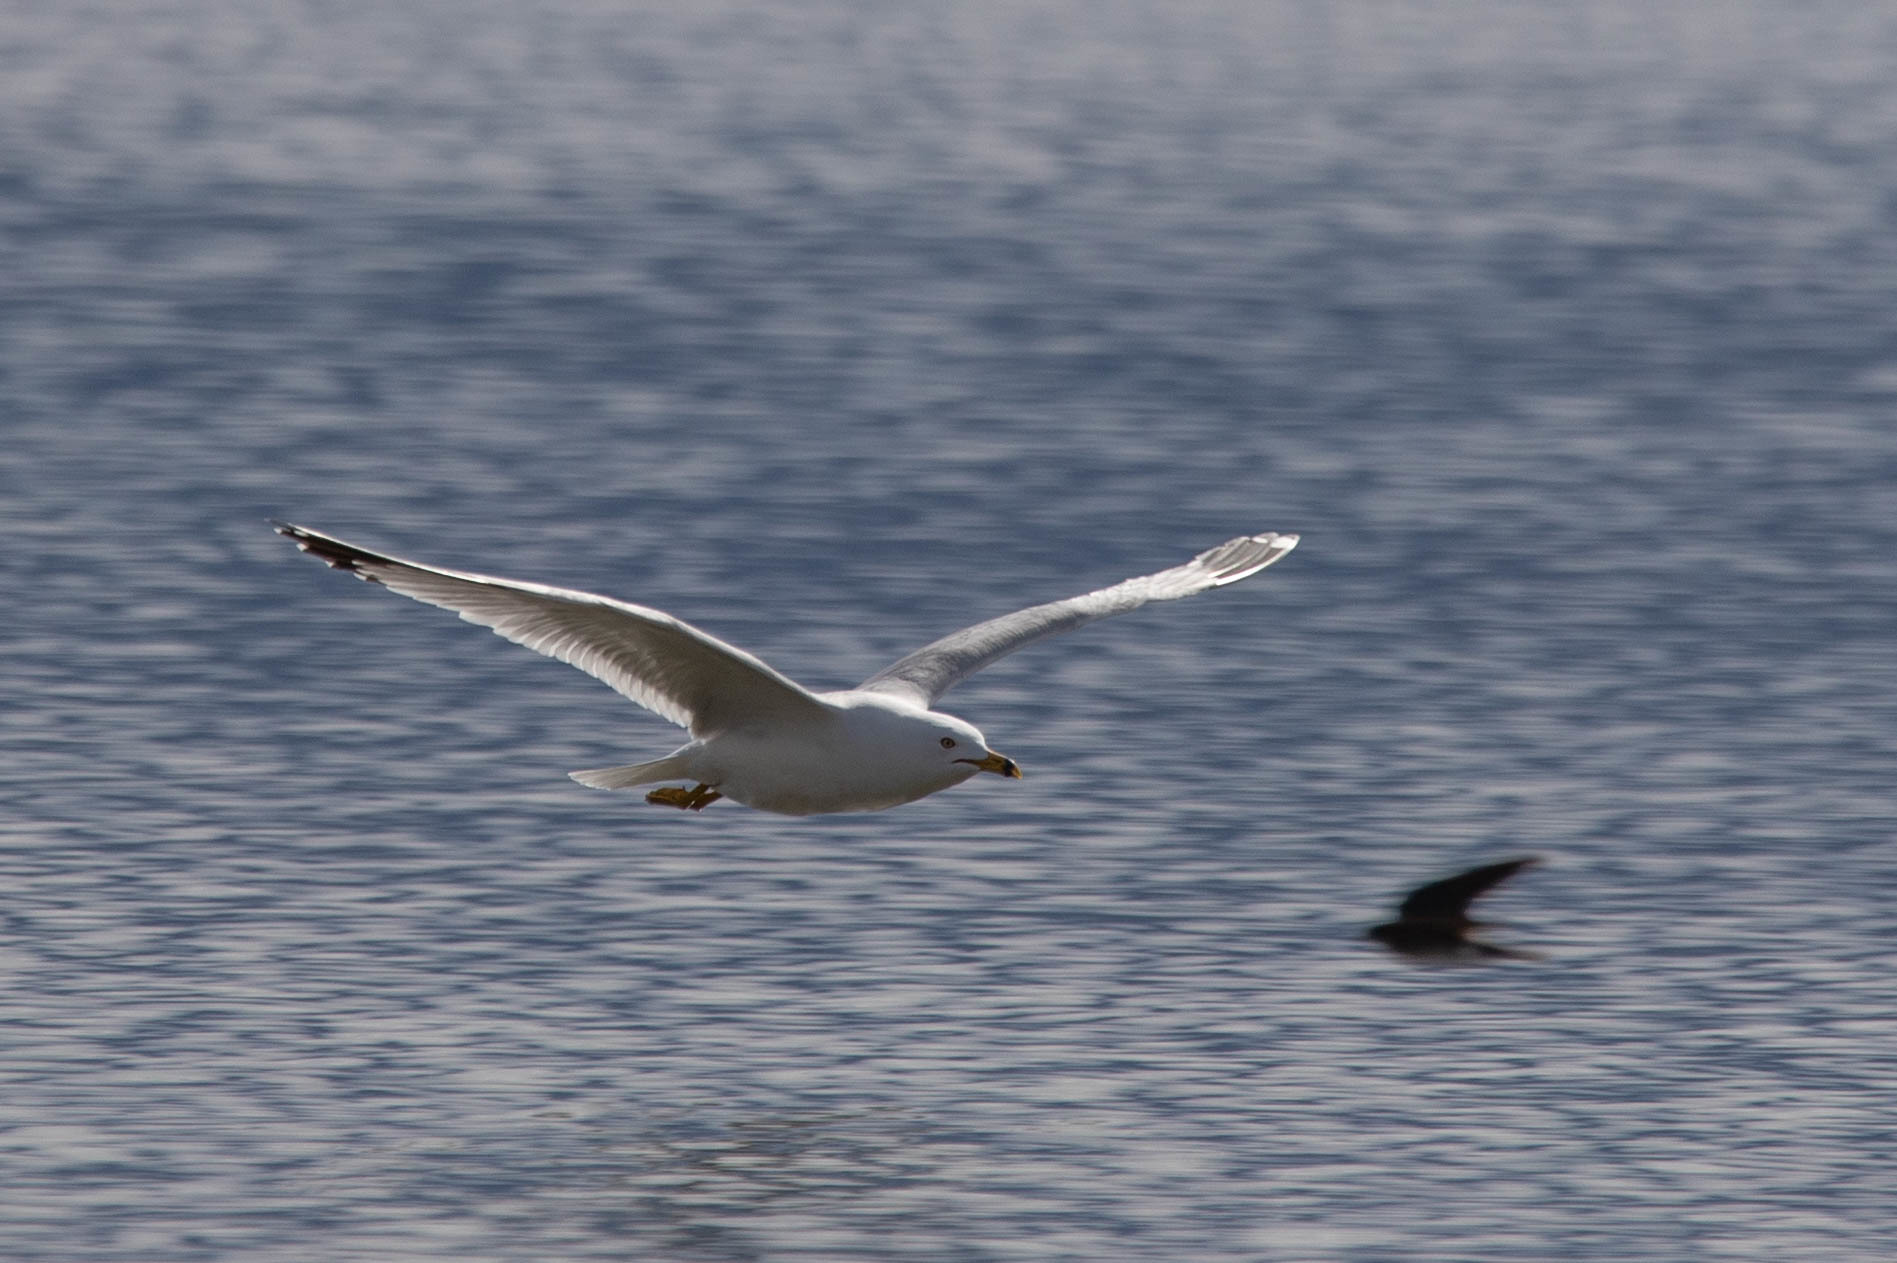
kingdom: Animalia
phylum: Chordata
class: Aves
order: Charadriiformes
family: Laridae
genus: Larus
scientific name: Larus delawarensis
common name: Ring-billed gull
